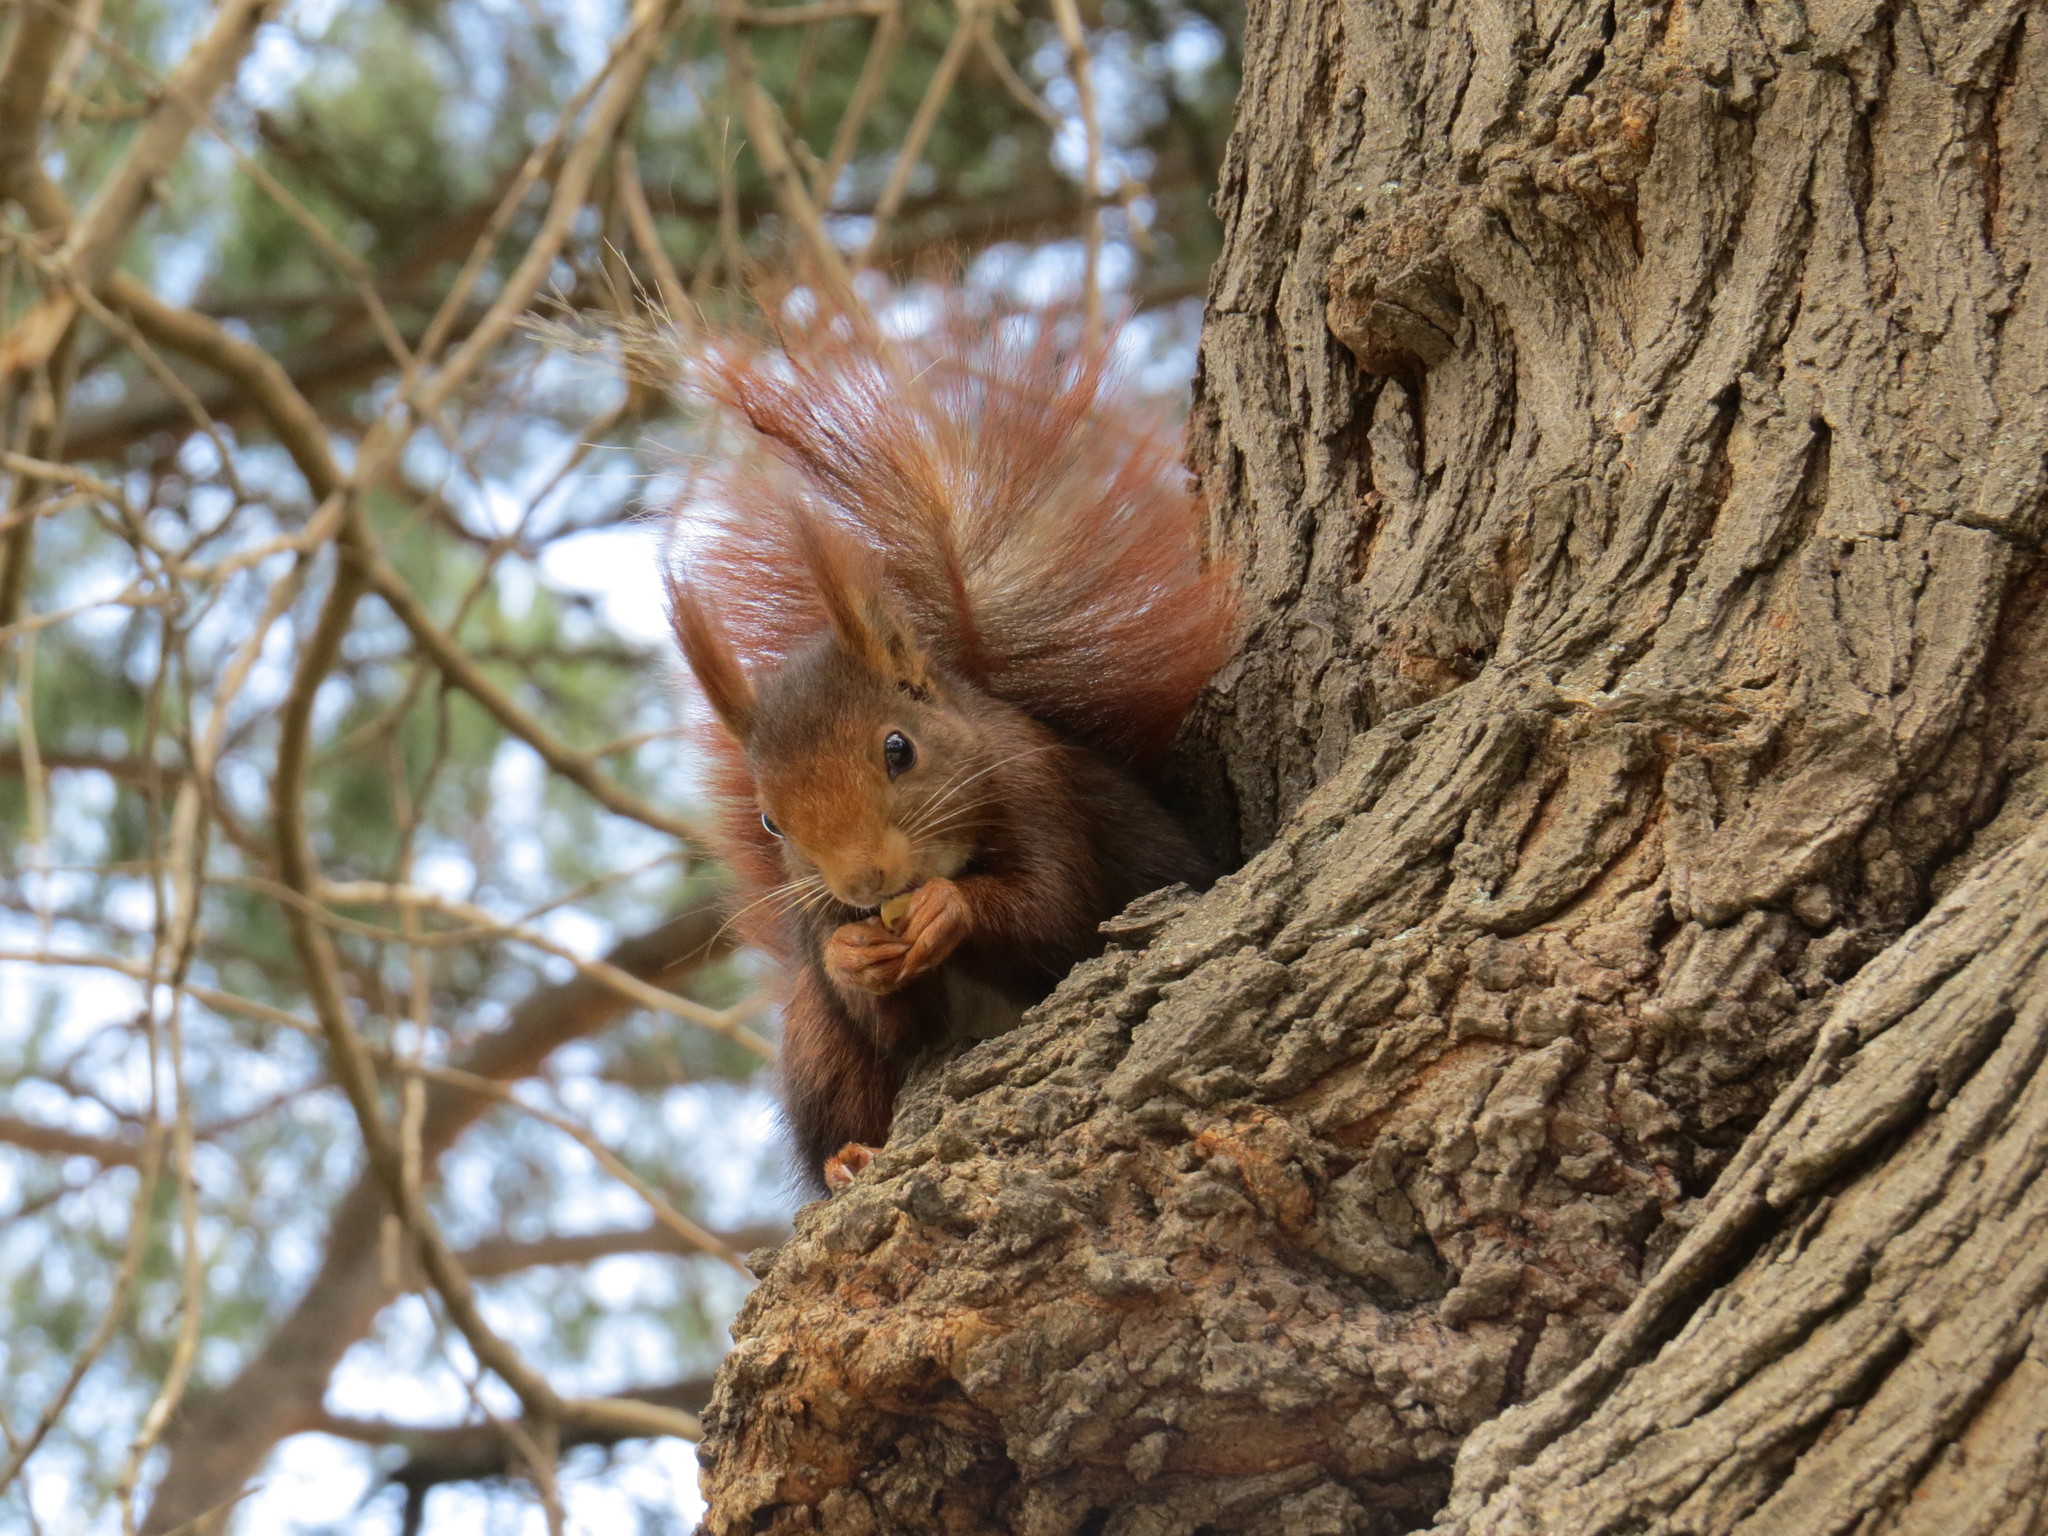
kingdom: Animalia
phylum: Chordata
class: Mammalia
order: Rodentia
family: Sciuridae
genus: Sciurus
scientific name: Sciurus vulgaris
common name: Eurasian red squirrel
